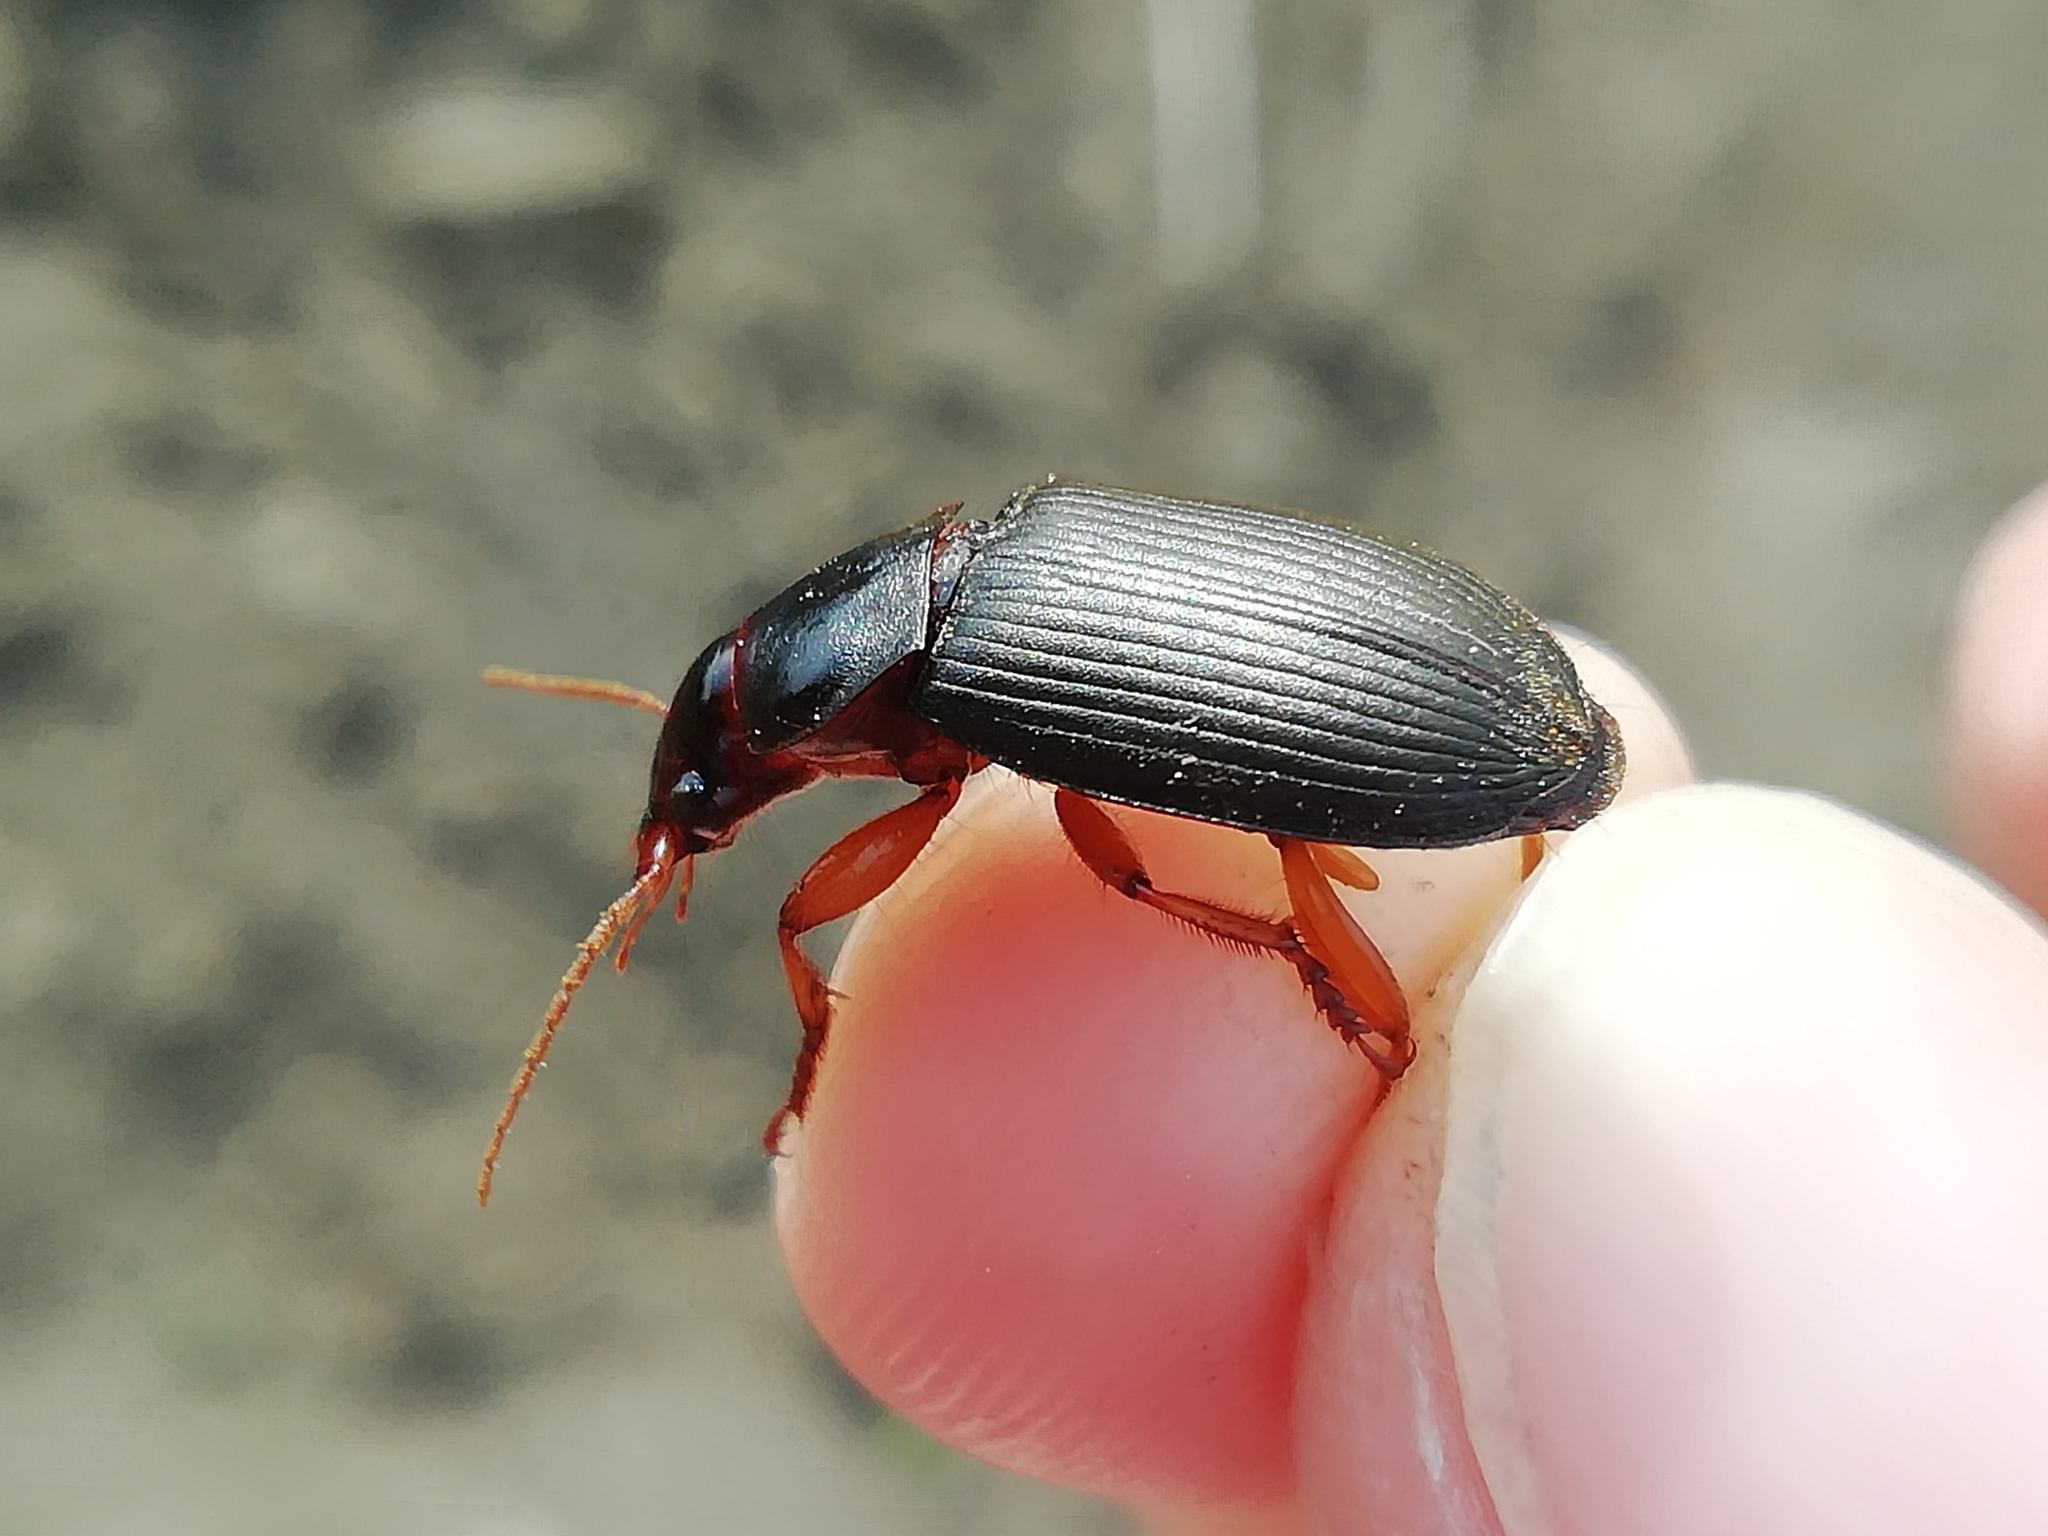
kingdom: Animalia
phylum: Arthropoda
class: Insecta
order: Coleoptera
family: Carabidae
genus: Harpalus
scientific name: Harpalus rufipes
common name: Strawberry harp ground beetle
